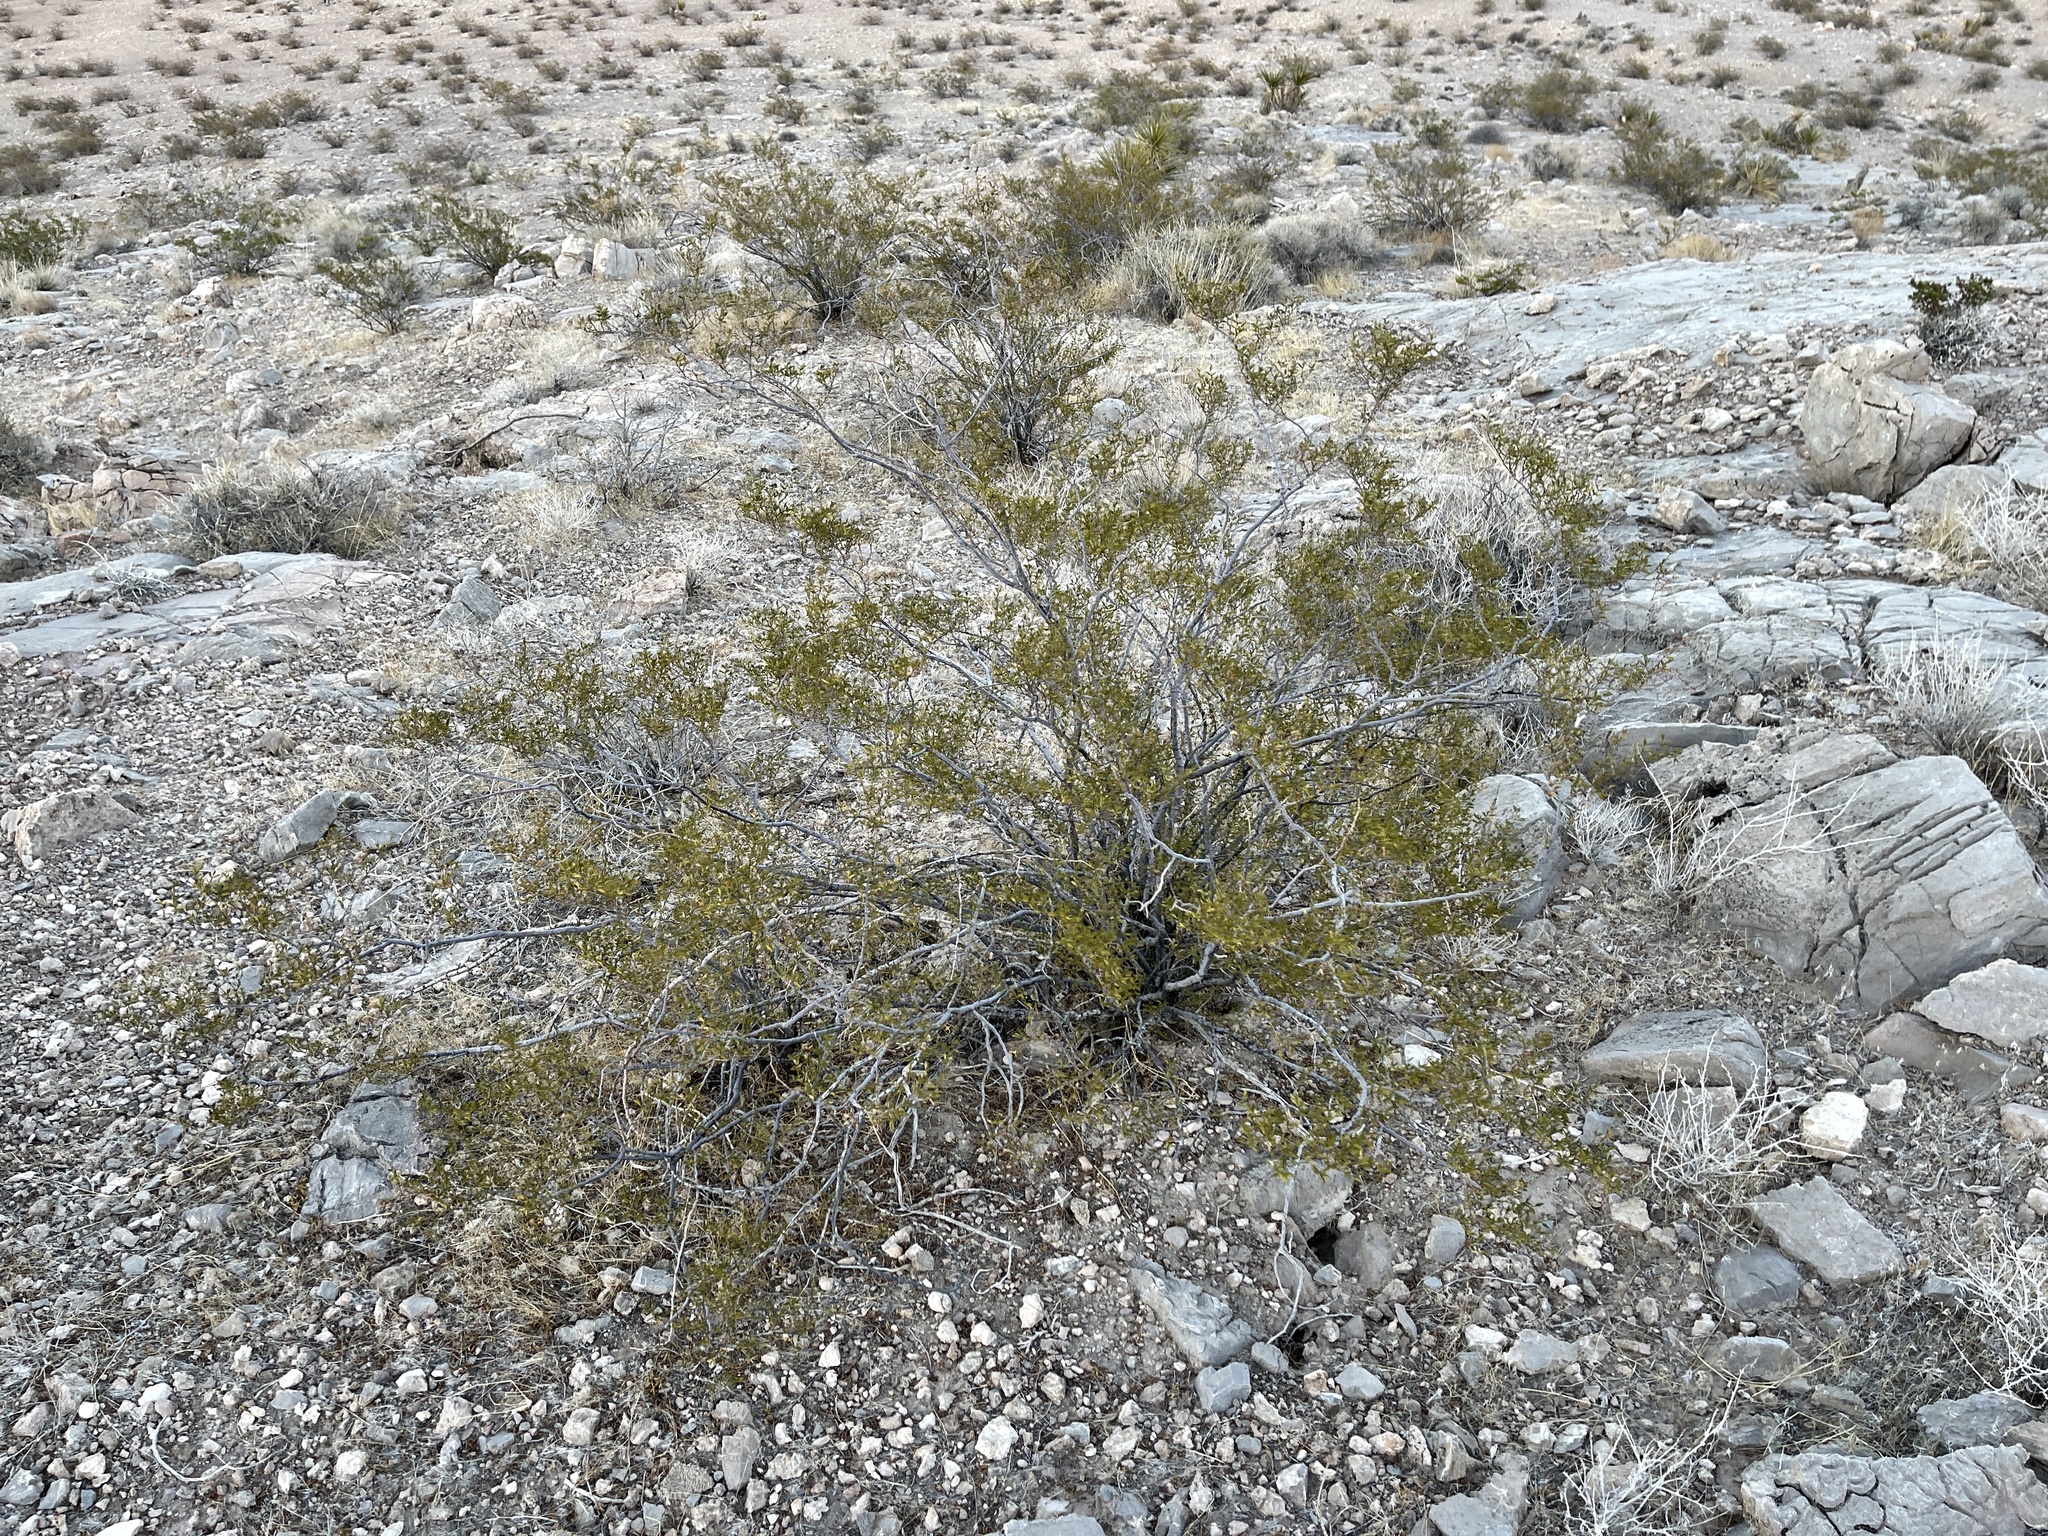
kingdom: Plantae
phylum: Tracheophyta
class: Magnoliopsida
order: Zygophyllales
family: Zygophyllaceae
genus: Larrea
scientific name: Larrea tridentata
